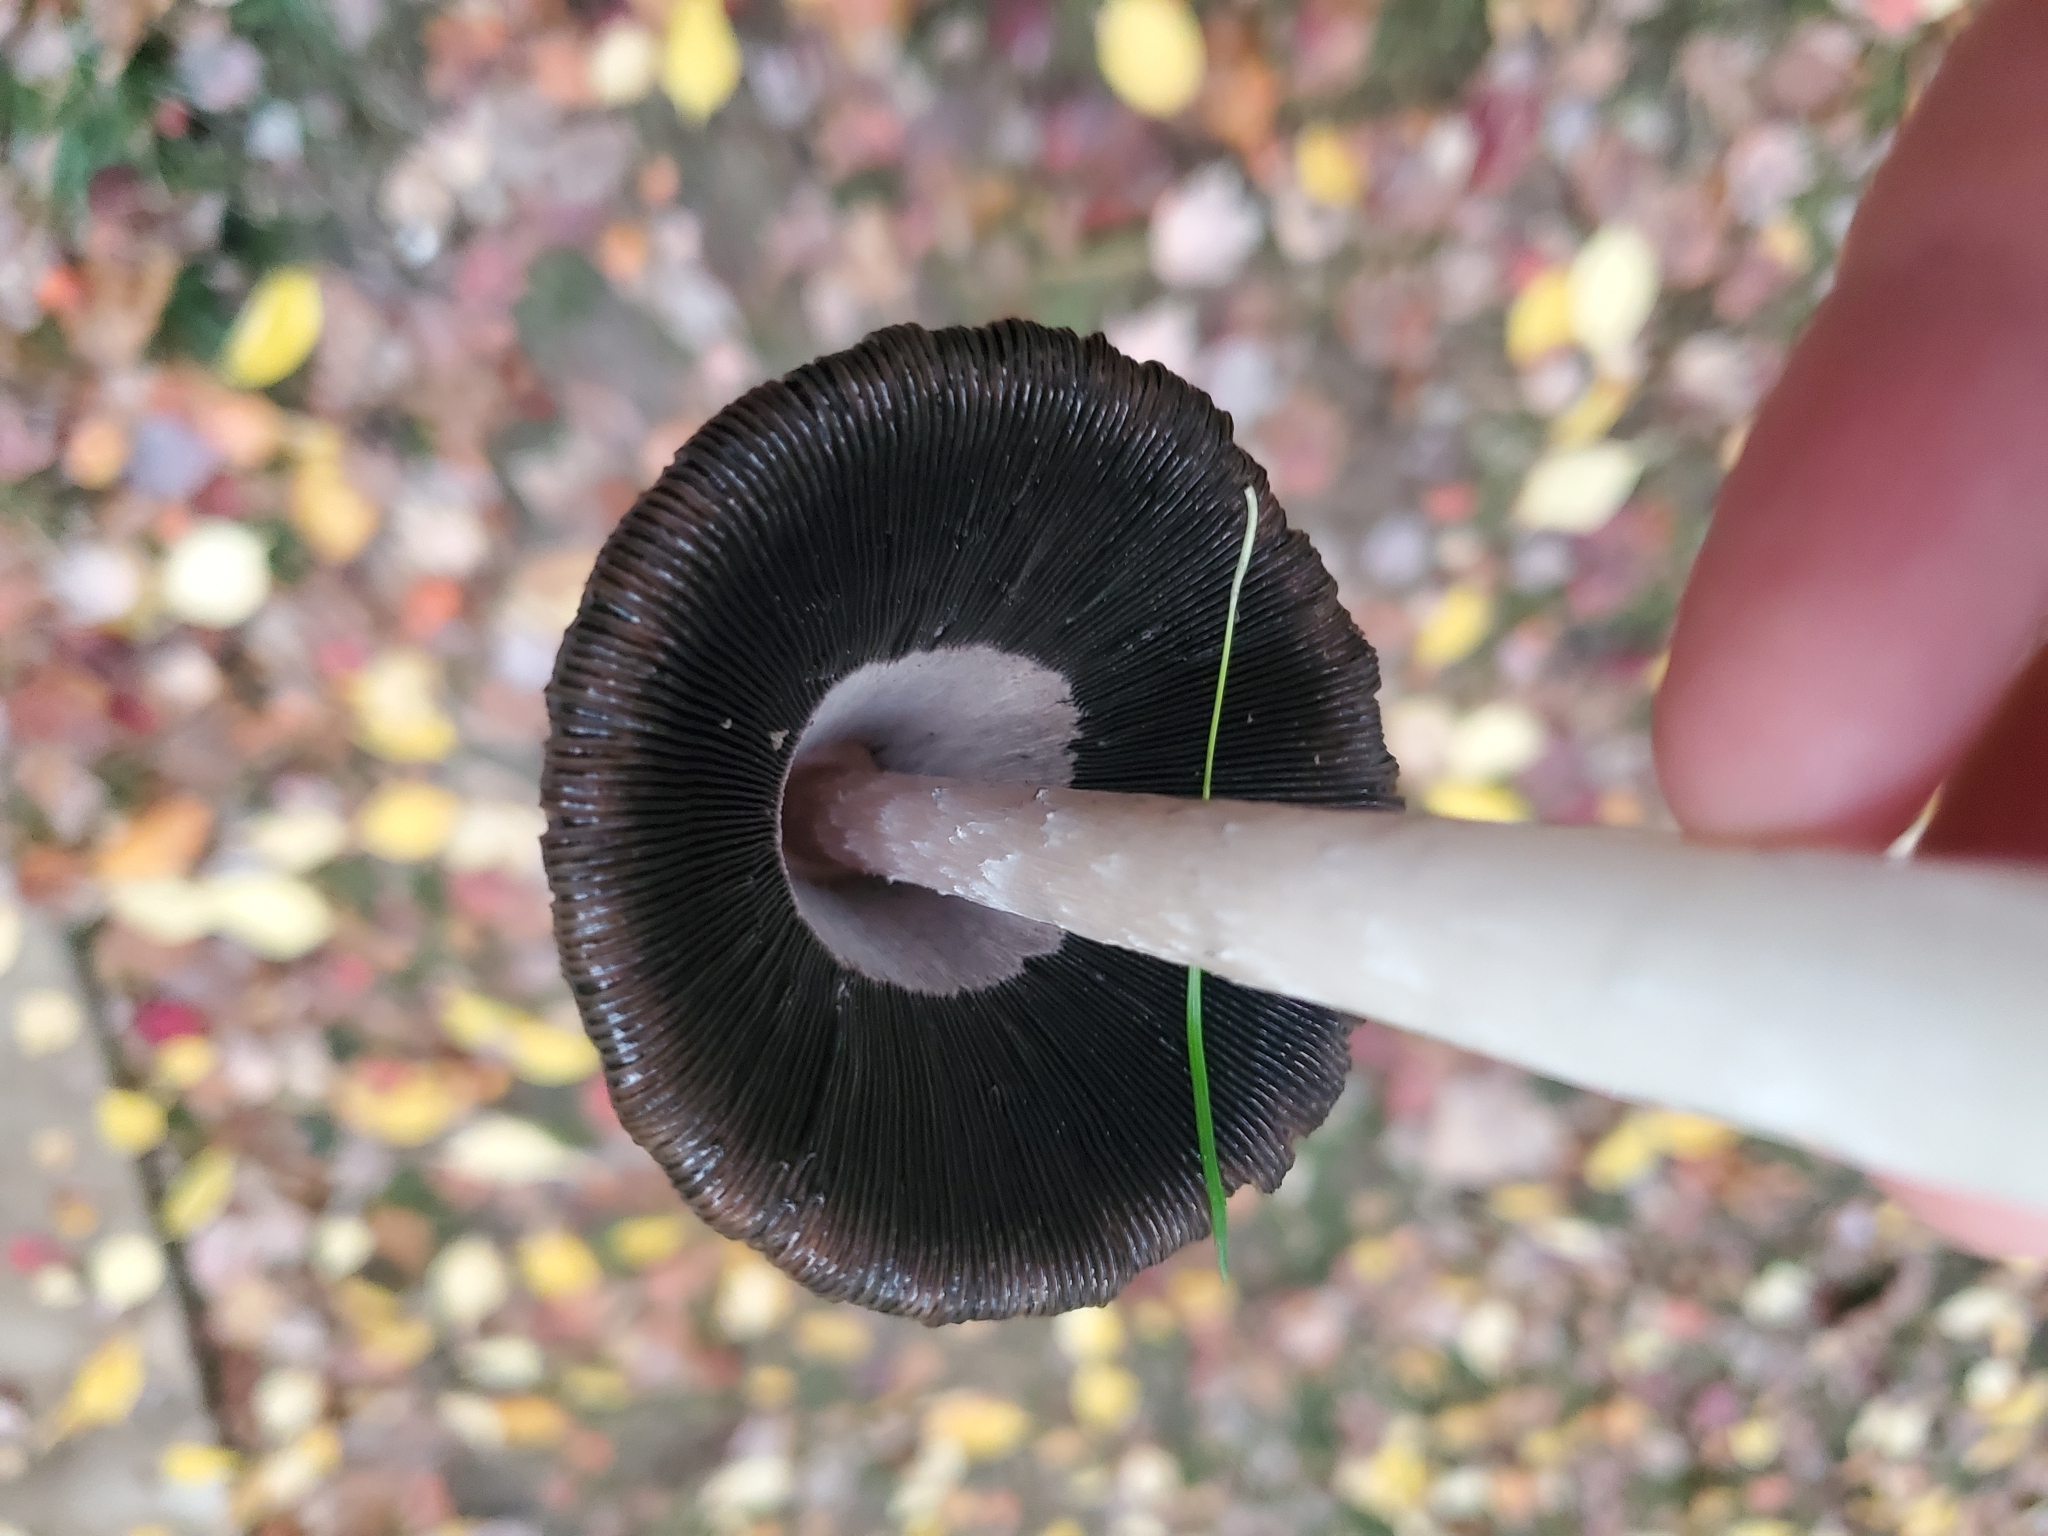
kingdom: Fungi
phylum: Basidiomycota
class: Agaricomycetes
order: Agaricales
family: Agaricaceae
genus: Coprinus
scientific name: Coprinus comatus
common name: Lawyer's wig
